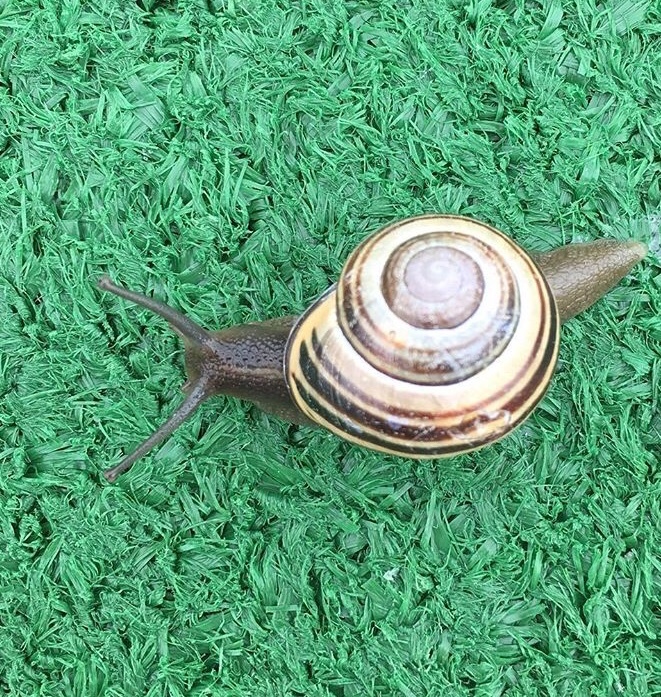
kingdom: Animalia
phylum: Mollusca
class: Gastropoda
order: Stylommatophora
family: Helicidae
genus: Cepaea
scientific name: Cepaea nemoralis
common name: Grovesnail
